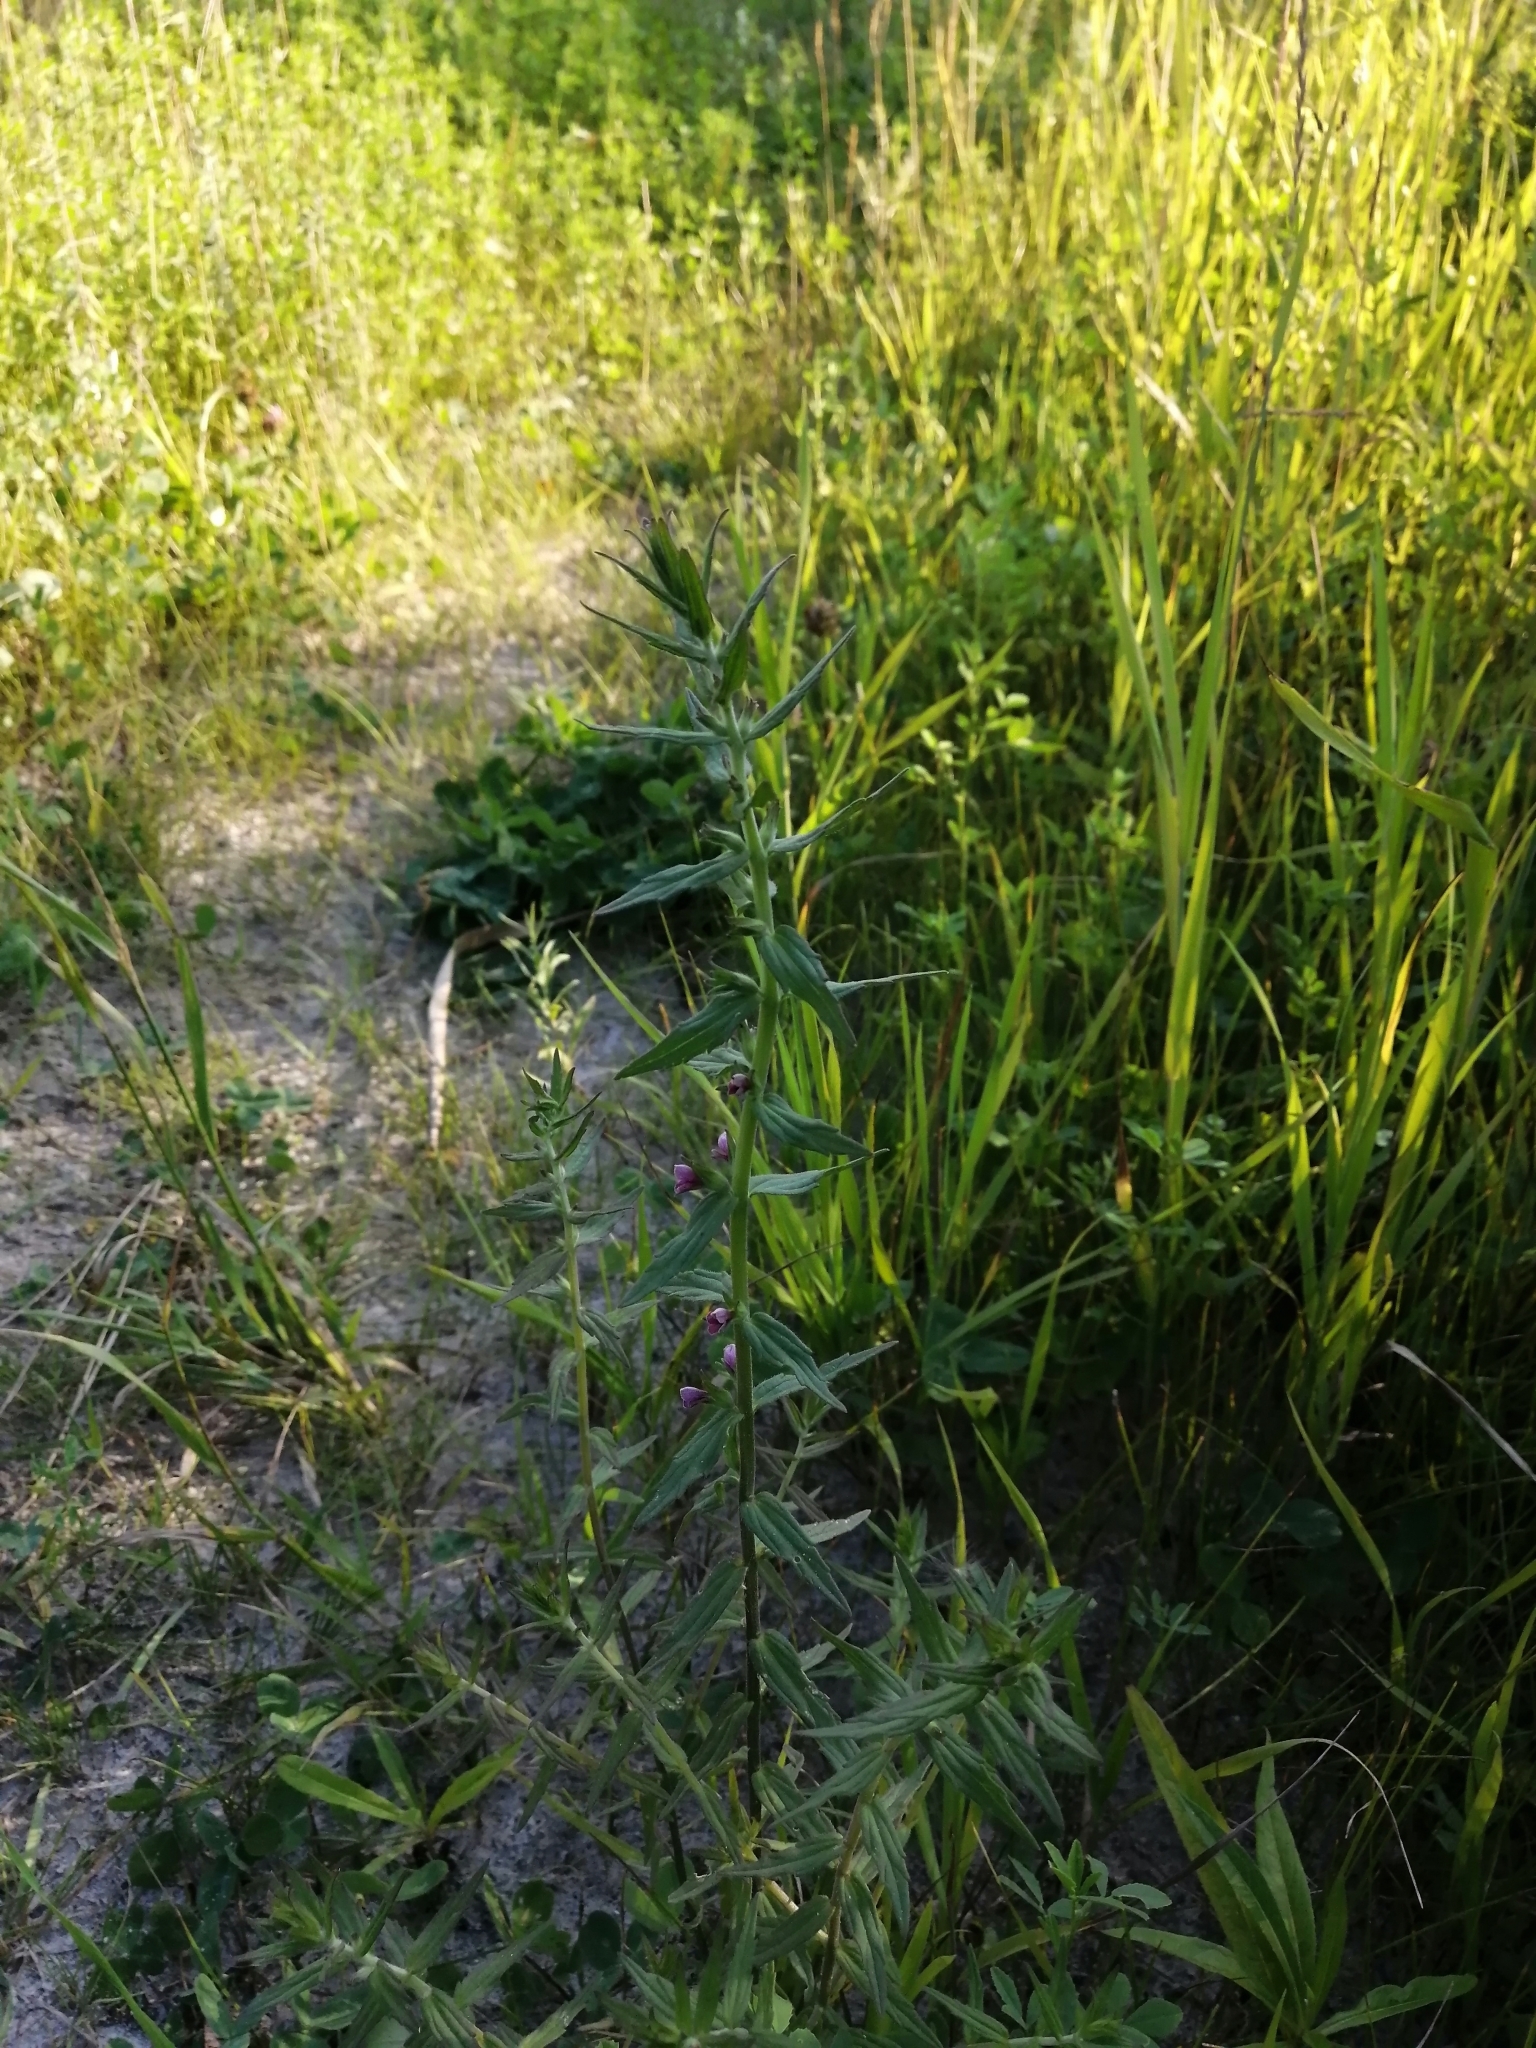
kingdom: Plantae
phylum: Tracheophyta
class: Magnoliopsida
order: Lamiales
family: Orobanchaceae
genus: Odontites
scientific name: Odontites vulgaris
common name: Broomrape
